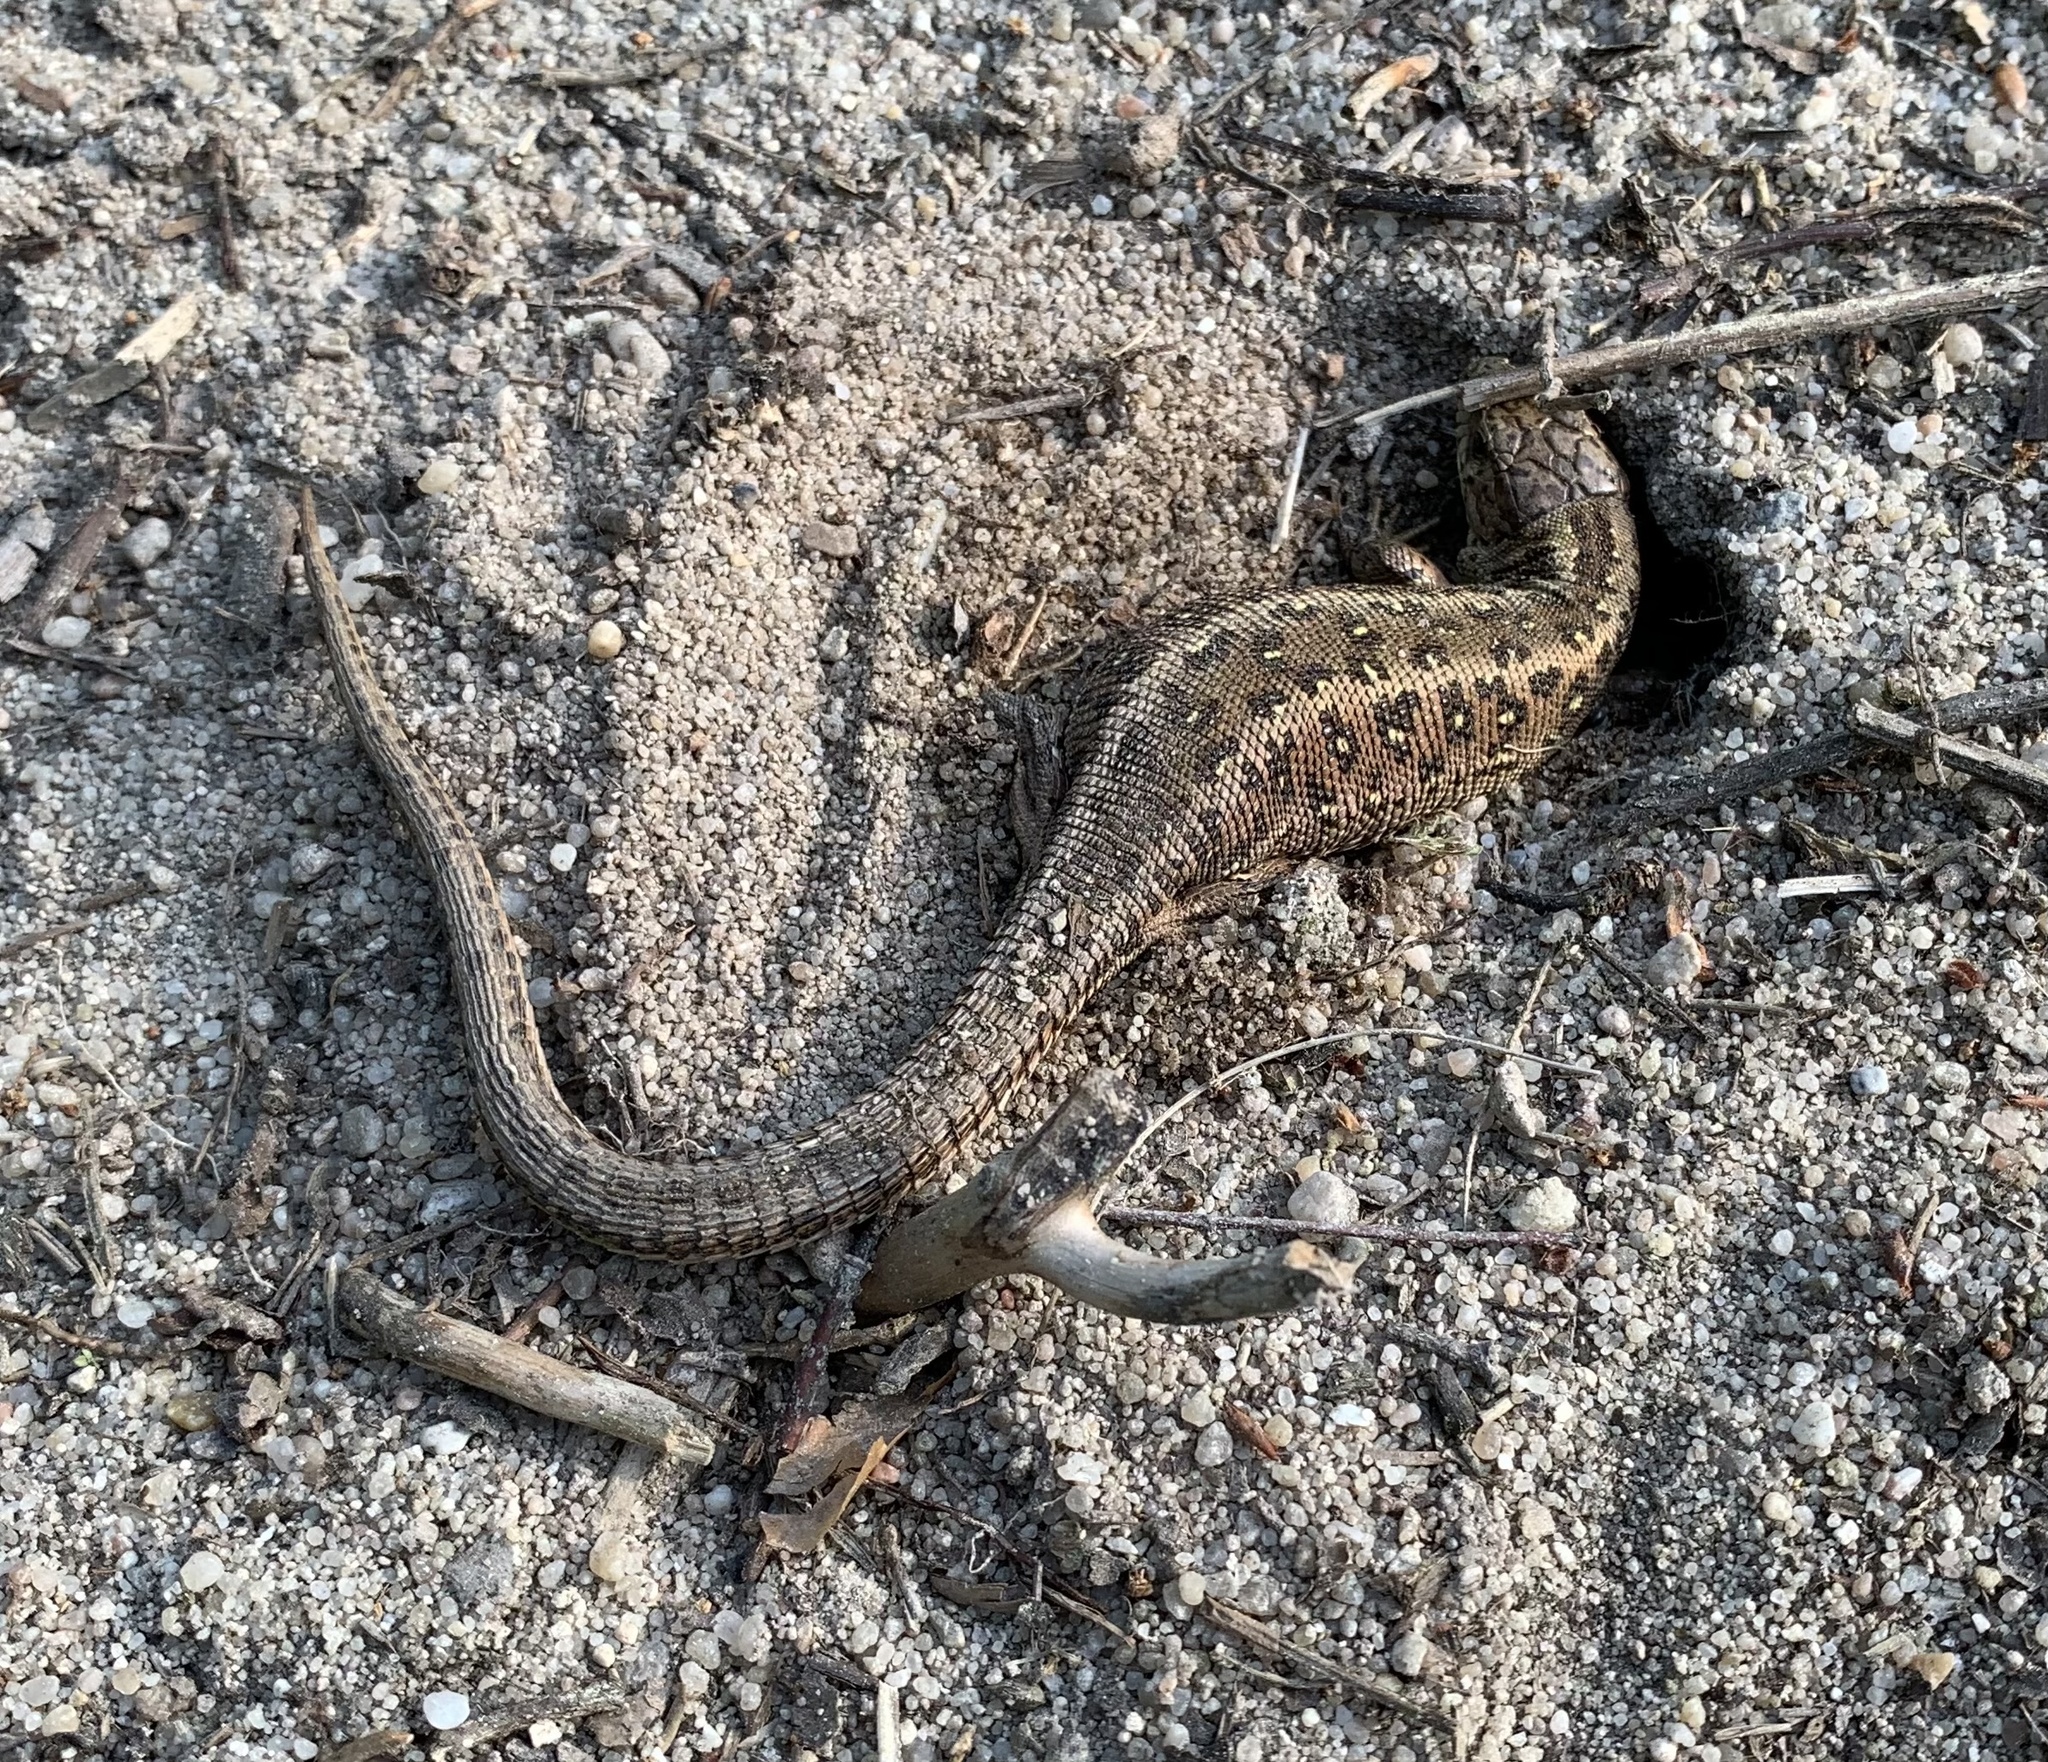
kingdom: Animalia
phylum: Chordata
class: Squamata
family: Lacertidae
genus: Lacerta
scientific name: Lacerta agilis
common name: Sand lizard
